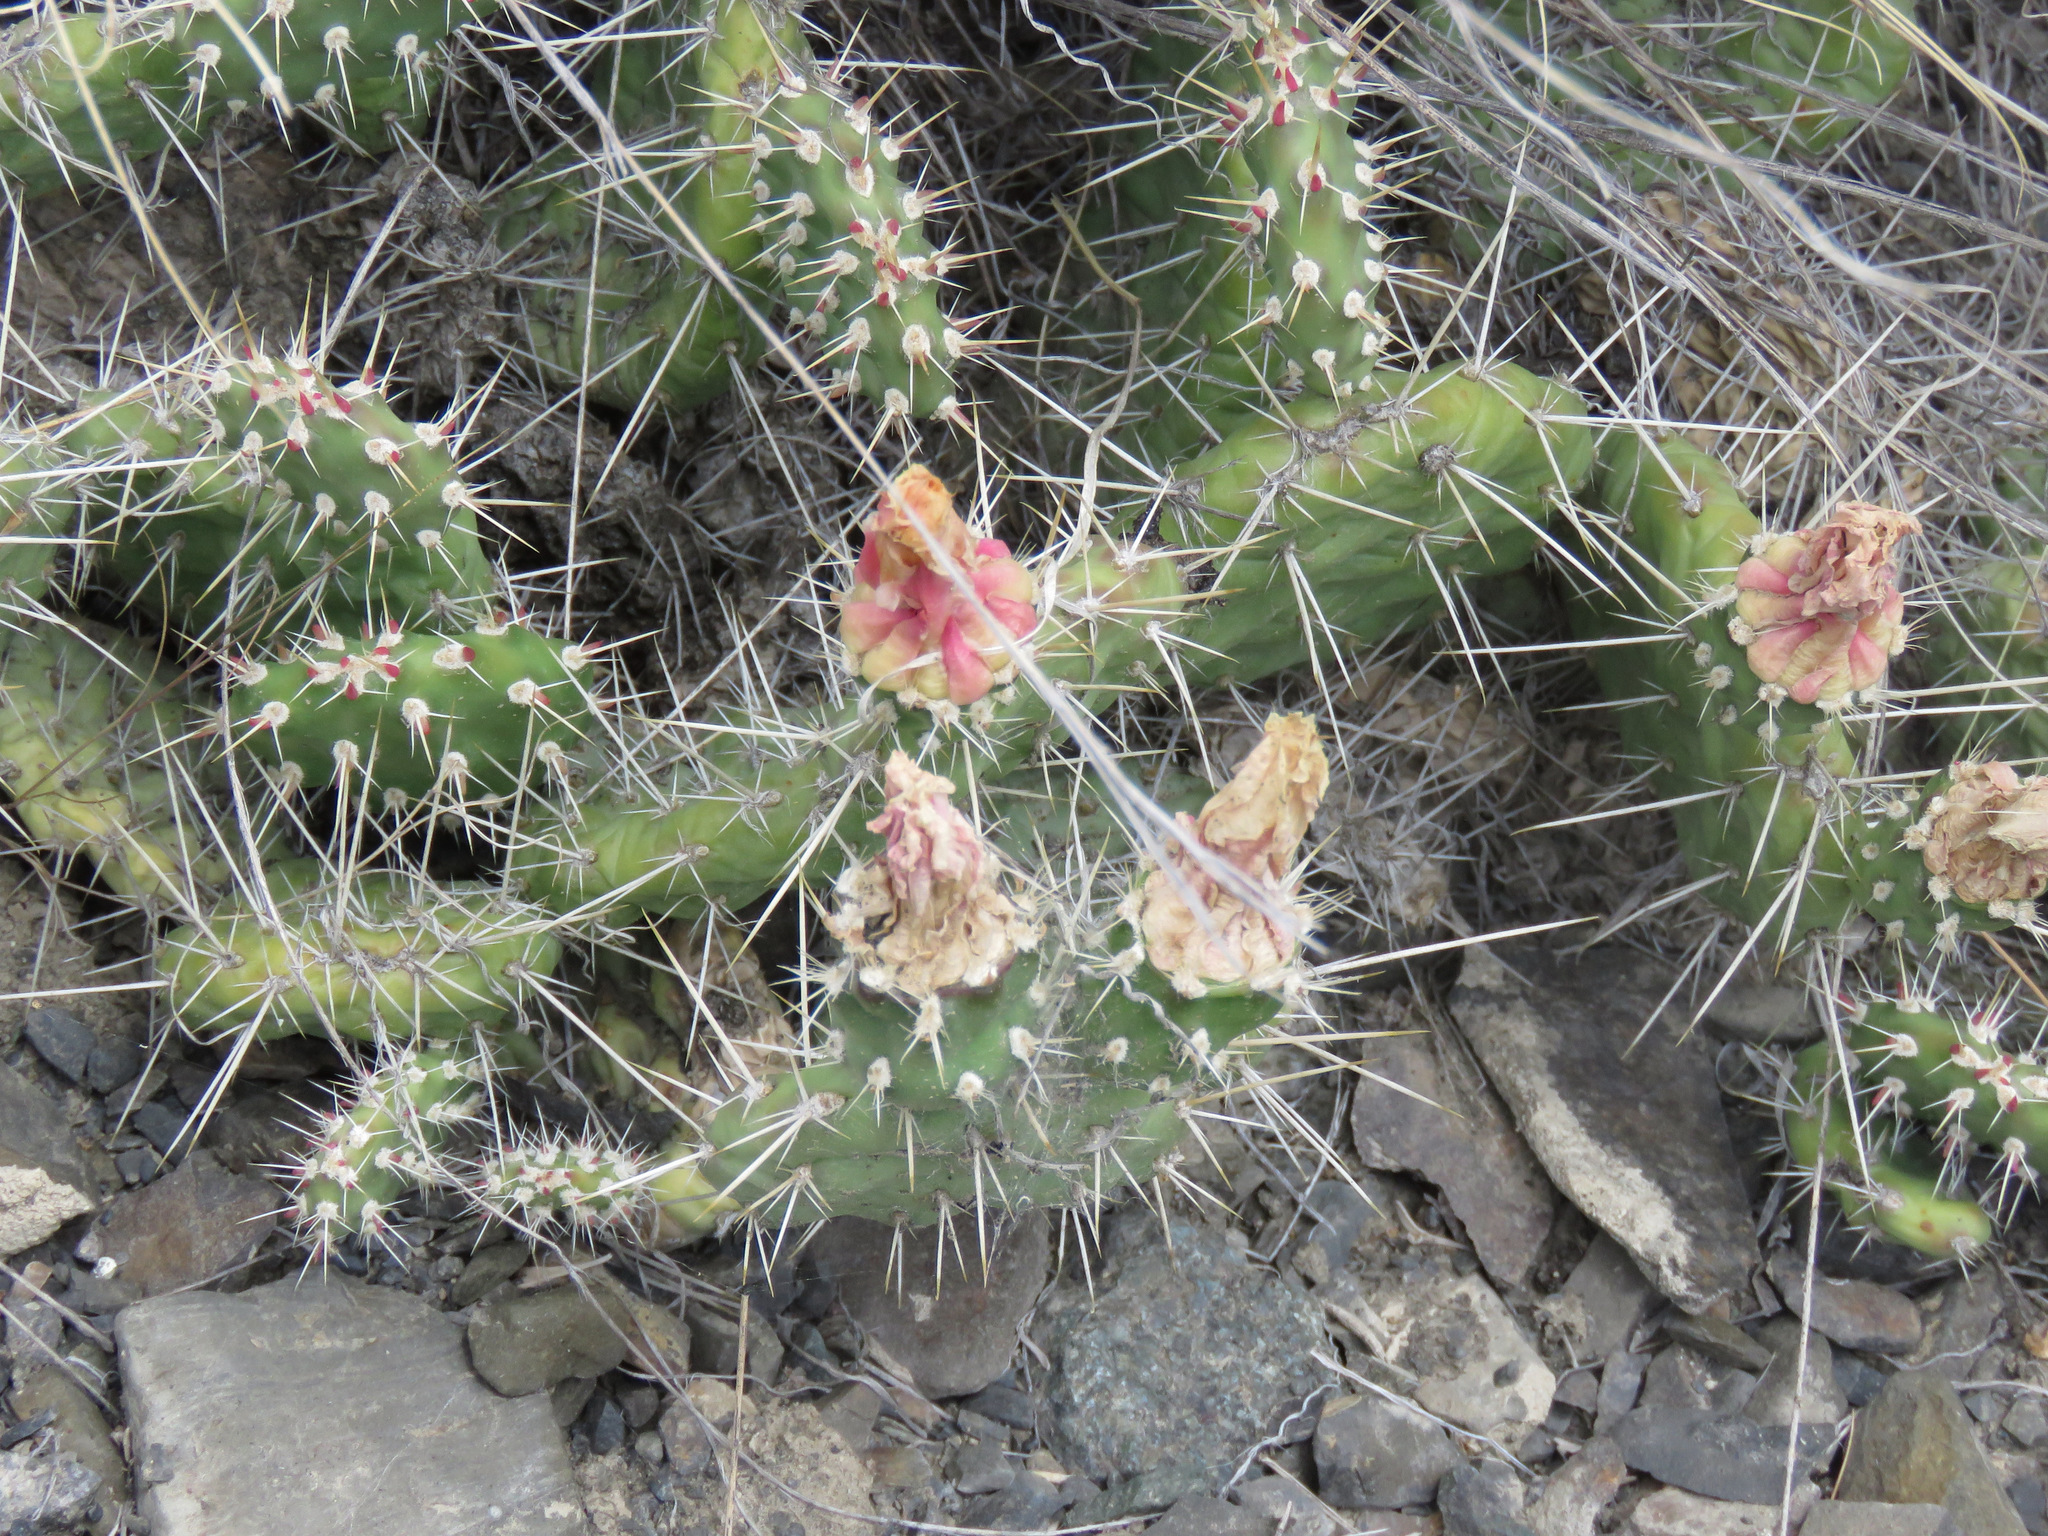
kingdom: Plantae
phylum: Tracheophyta
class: Magnoliopsida
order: Caryophyllales
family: Cactaceae
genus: Opuntia
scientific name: Opuntia fragilis
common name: Brittle cactus
